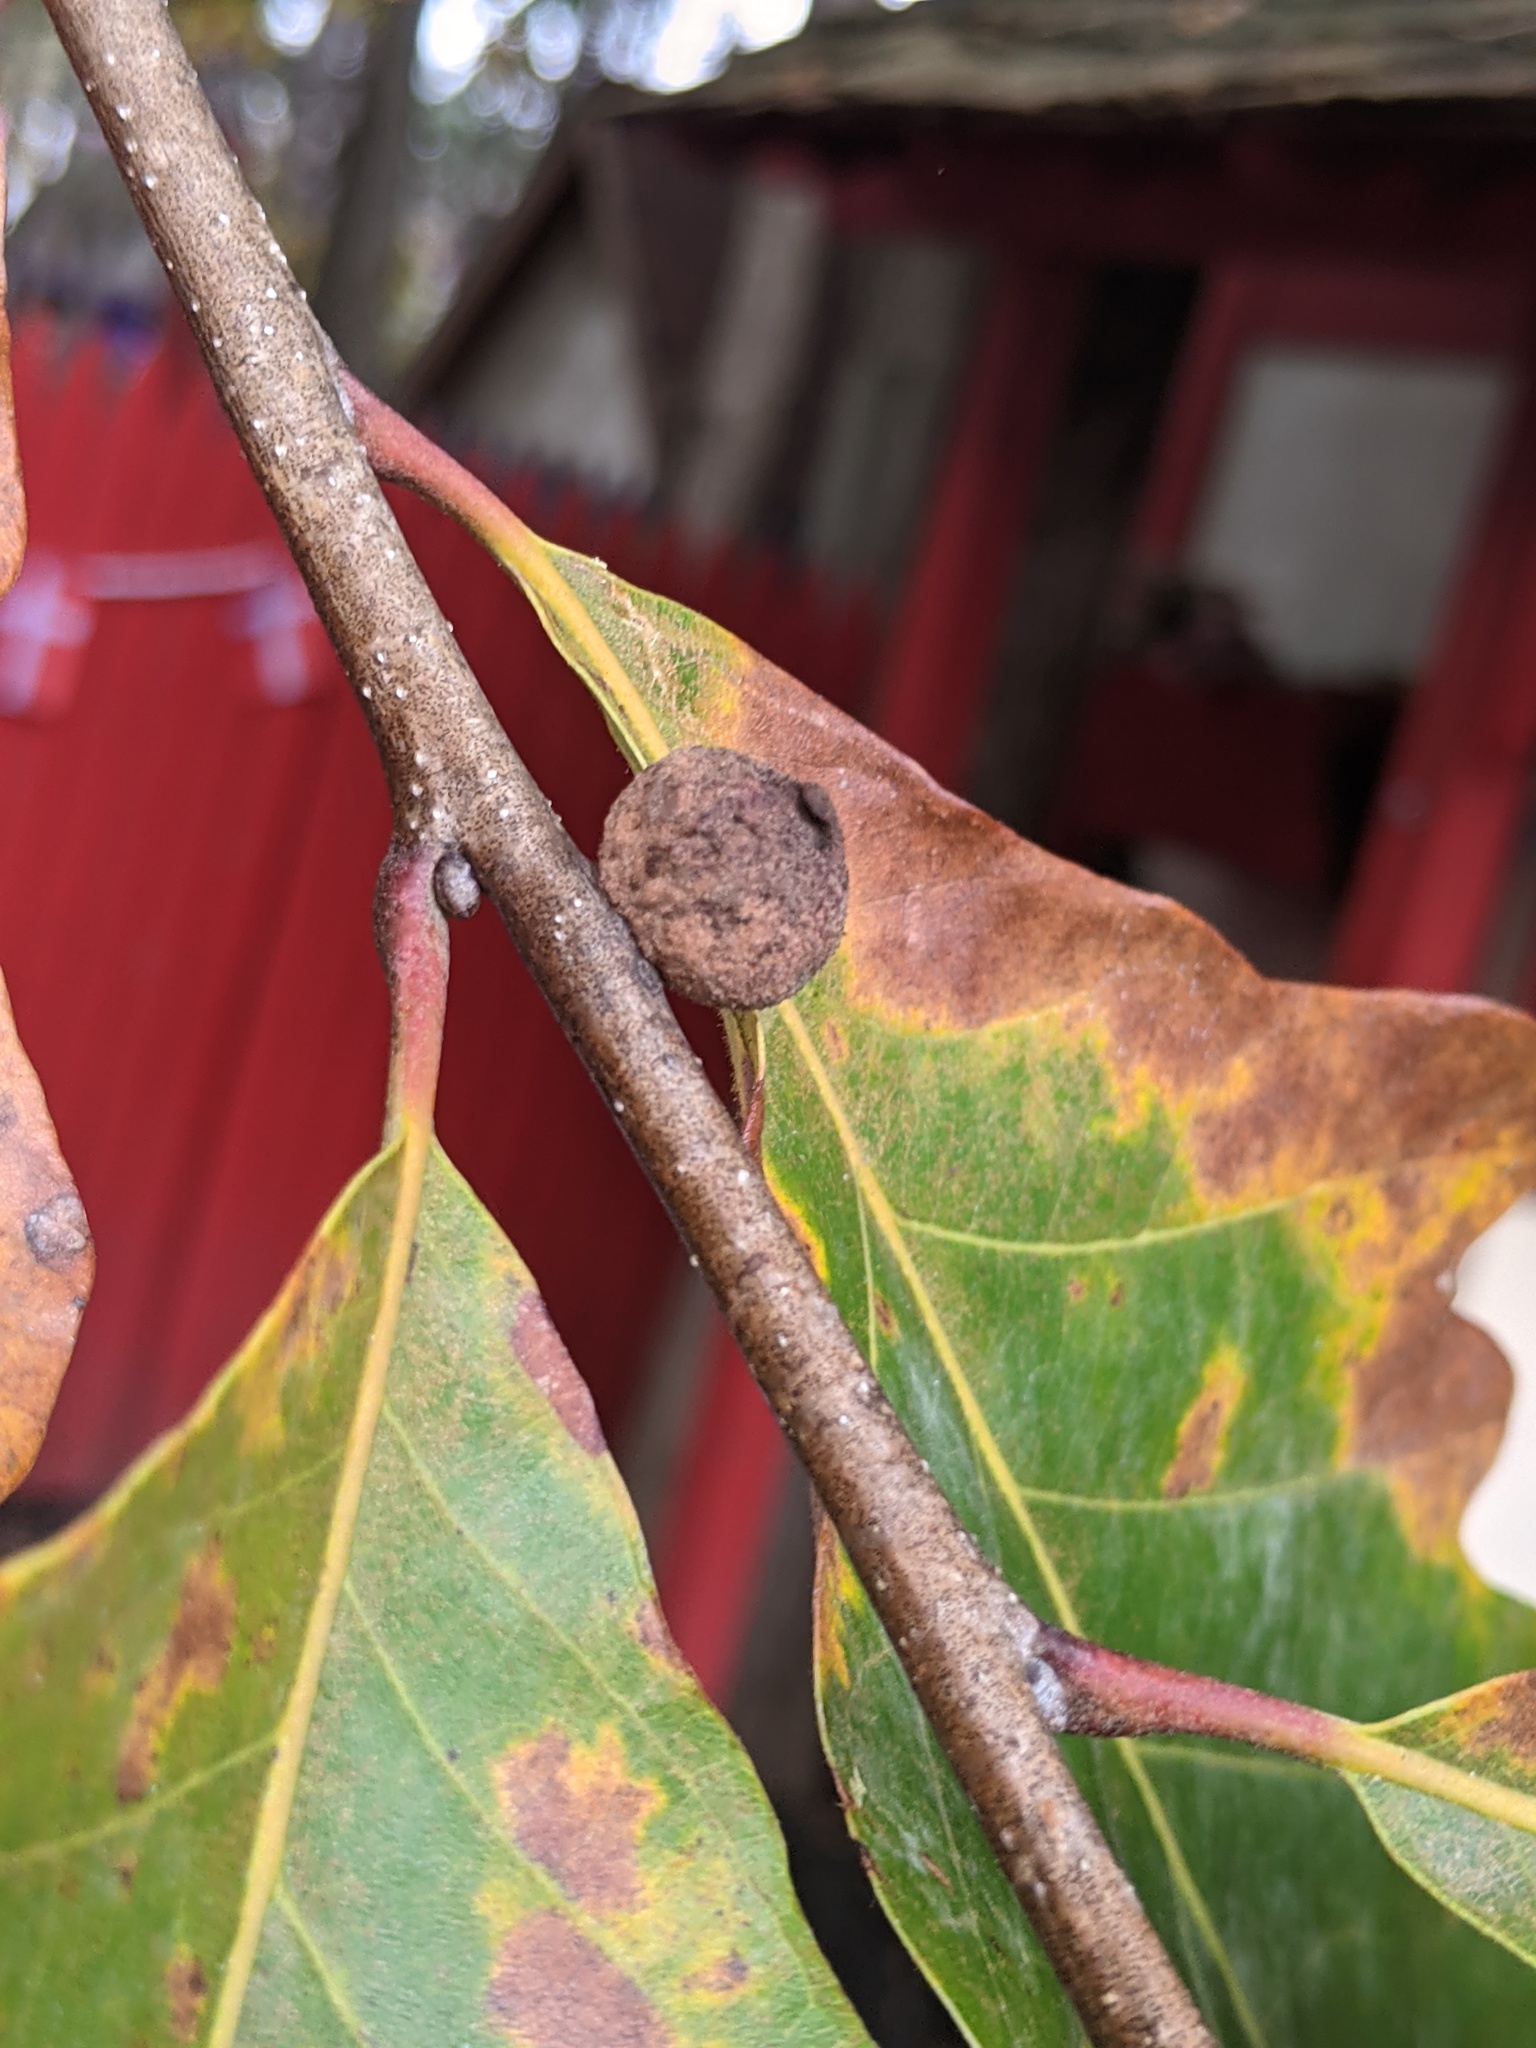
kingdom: Animalia
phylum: Arthropoda
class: Insecta
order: Hymenoptera
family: Cynipidae
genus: Disholcaspis
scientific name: Disholcaspis
